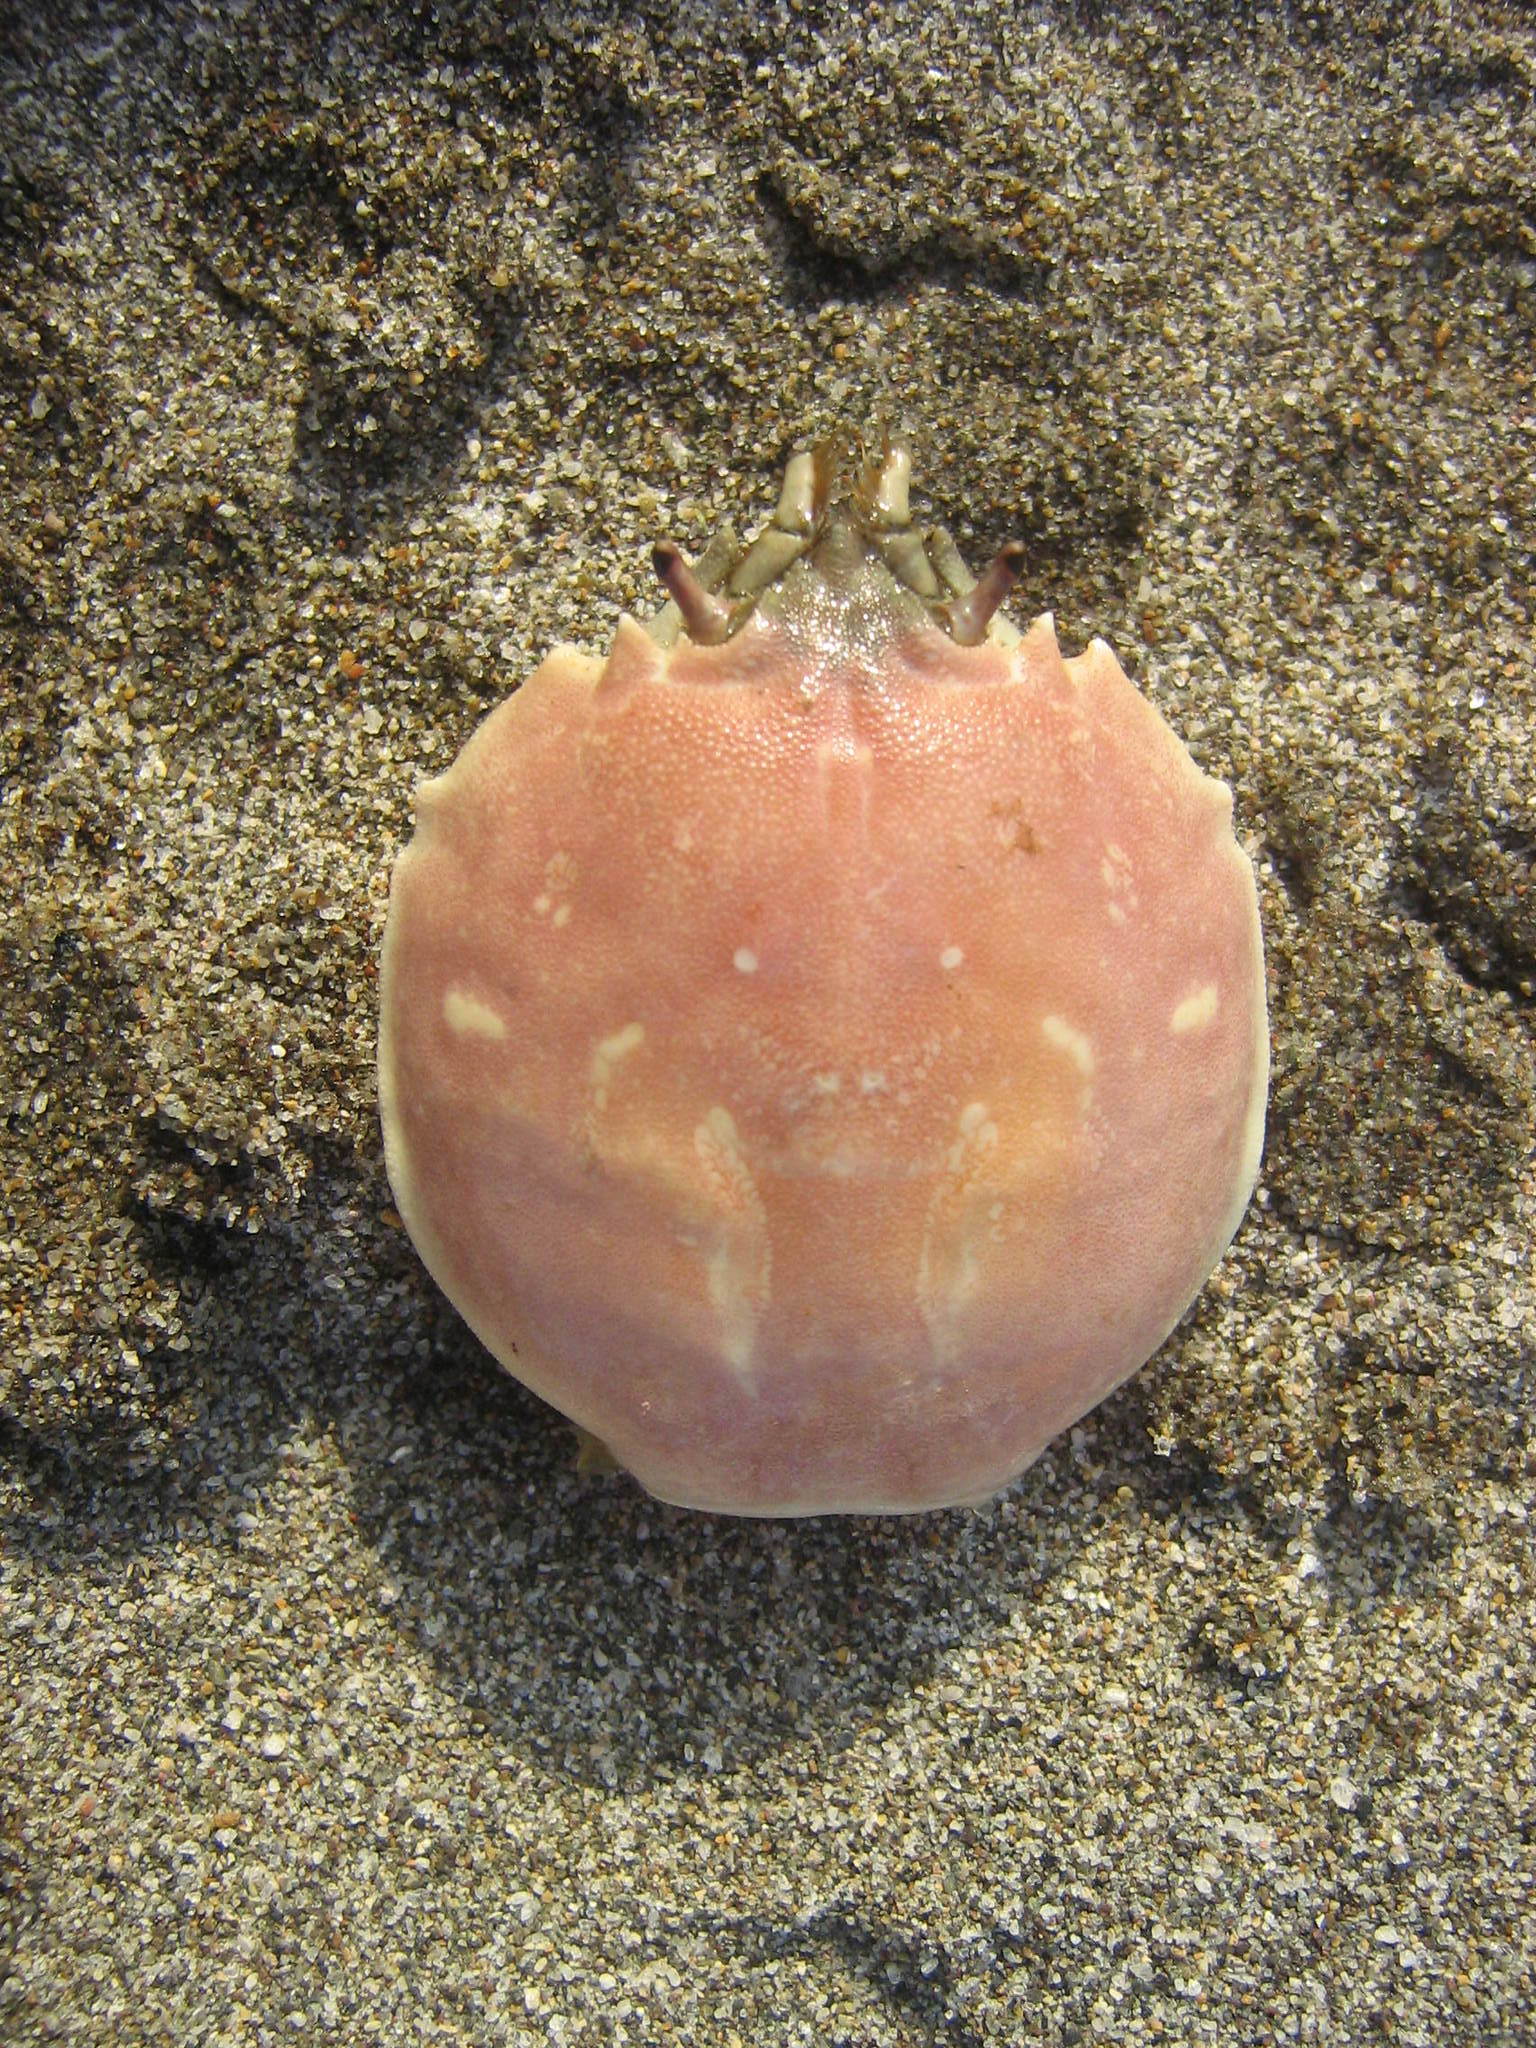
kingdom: Animalia
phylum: Arthropoda
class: Malacostraca
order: Decapoda
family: Atelecyclidae
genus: Pseudocorystes
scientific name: Pseudocorystes sicarius
